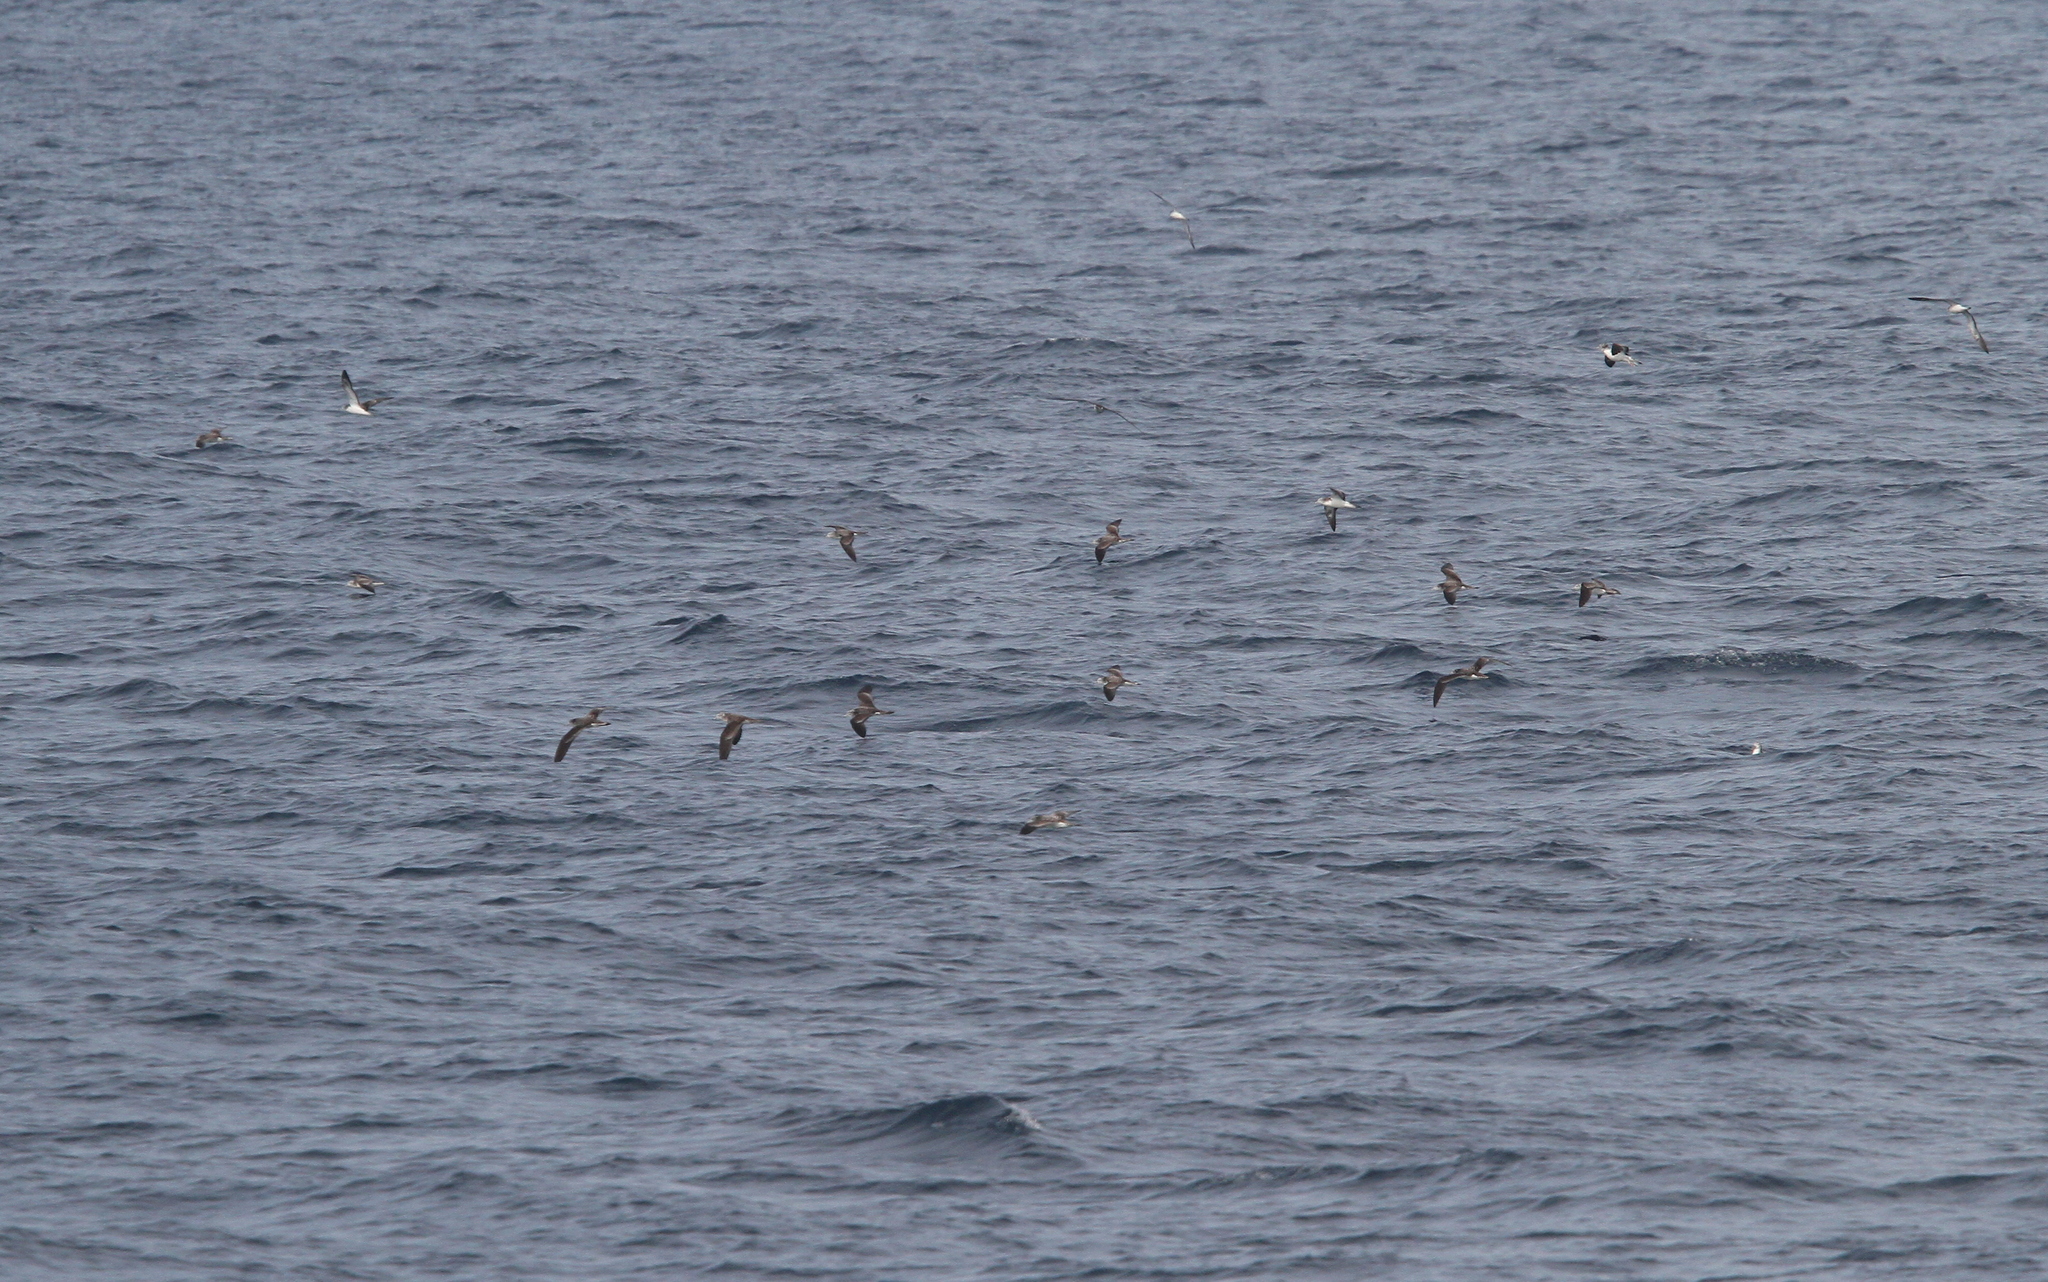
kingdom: Animalia
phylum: Chordata
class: Aves
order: Procellariiformes
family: Procellariidae
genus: Calonectris
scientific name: Calonectris leucomelas
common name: Streaked shearwater
